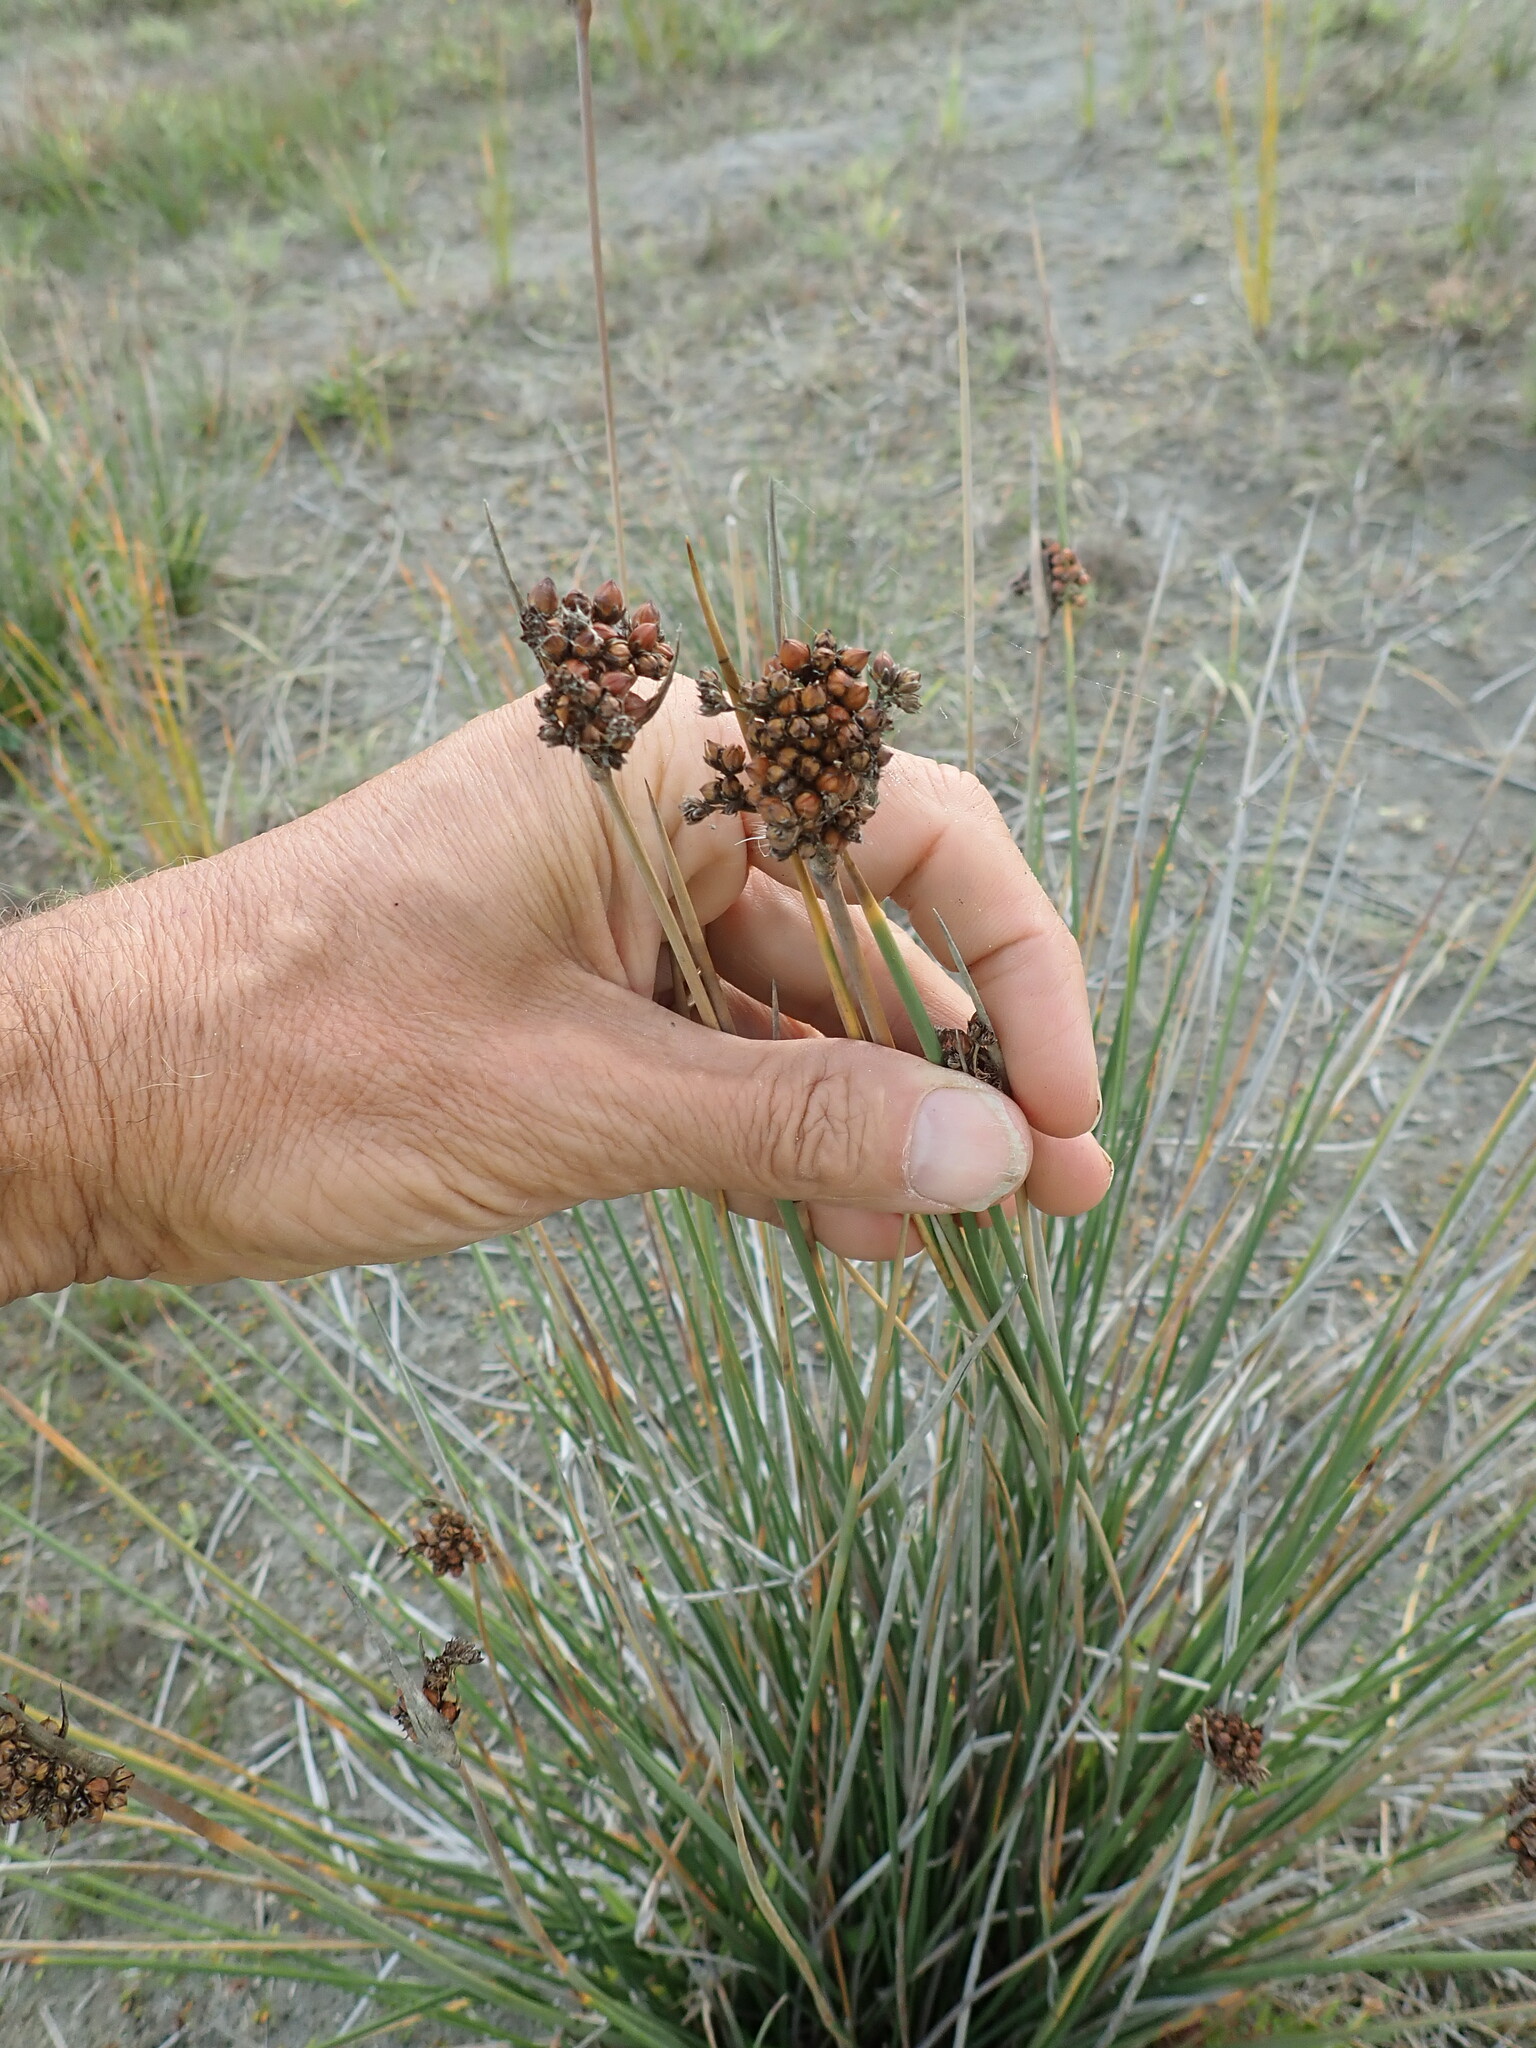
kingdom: Plantae
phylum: Tracheophyta
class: Liliopsida
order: Poales
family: Juncaceae
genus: Juncus
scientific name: Juncus acutus
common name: Sharp rush
